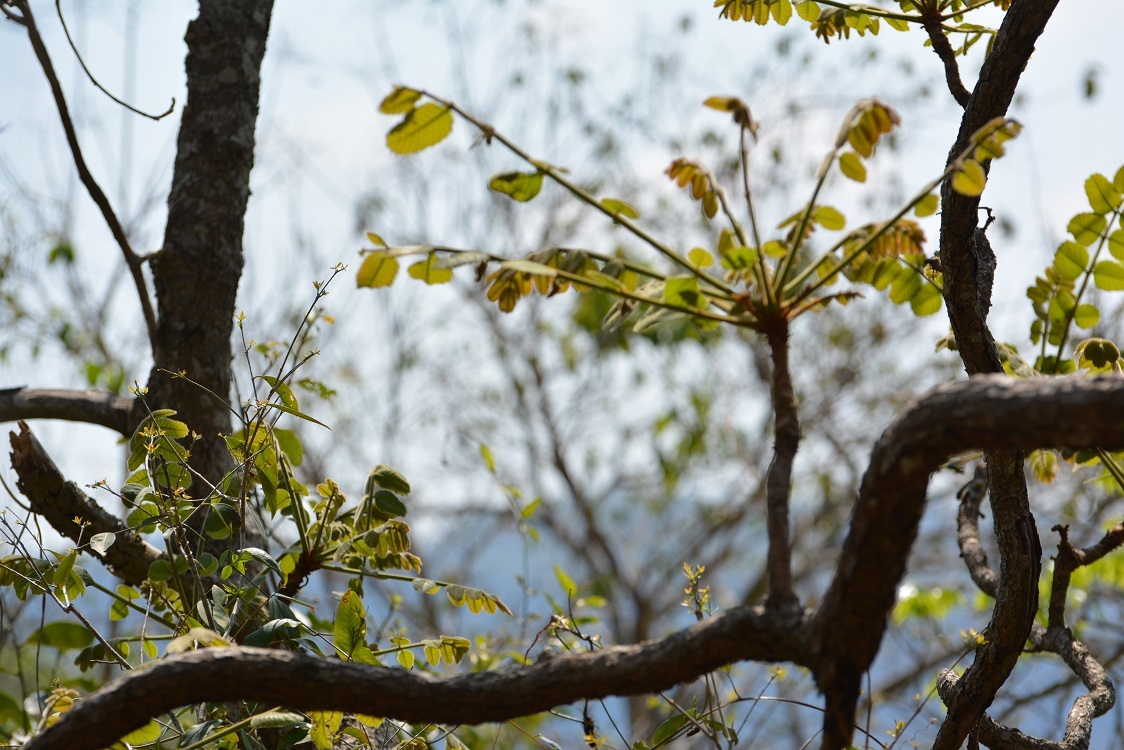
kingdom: Plantae
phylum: Tracheophyta
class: Magnoliopsida
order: Sapindales
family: Anacardiaceae
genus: Comocladia
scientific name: Comocladia guatemalensis
